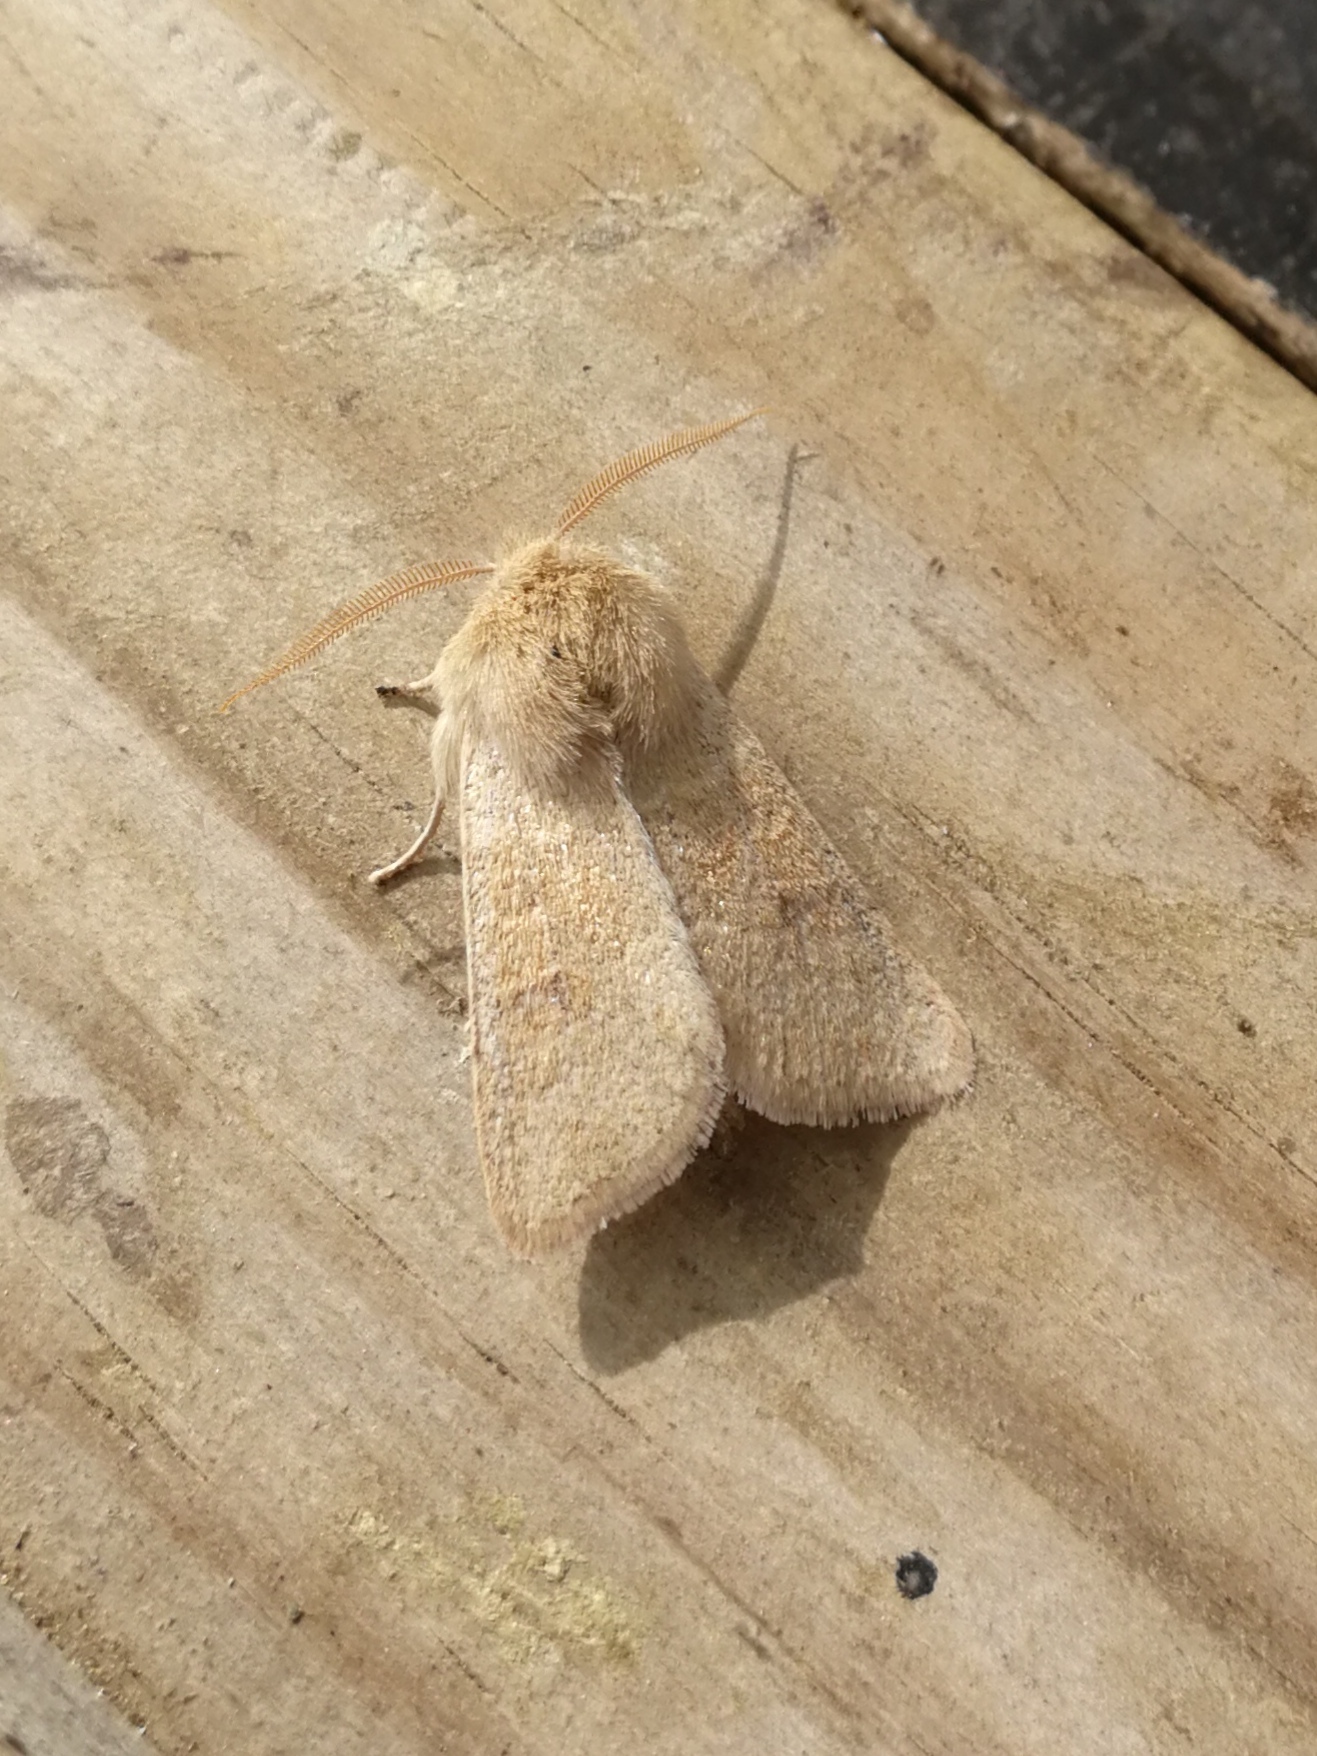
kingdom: Animalia
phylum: Arthropoda
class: Insecta
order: Lepidoptera
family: Noctuidae
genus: Orthosia
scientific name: Orthosia miniosa
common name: Blossom underwing
